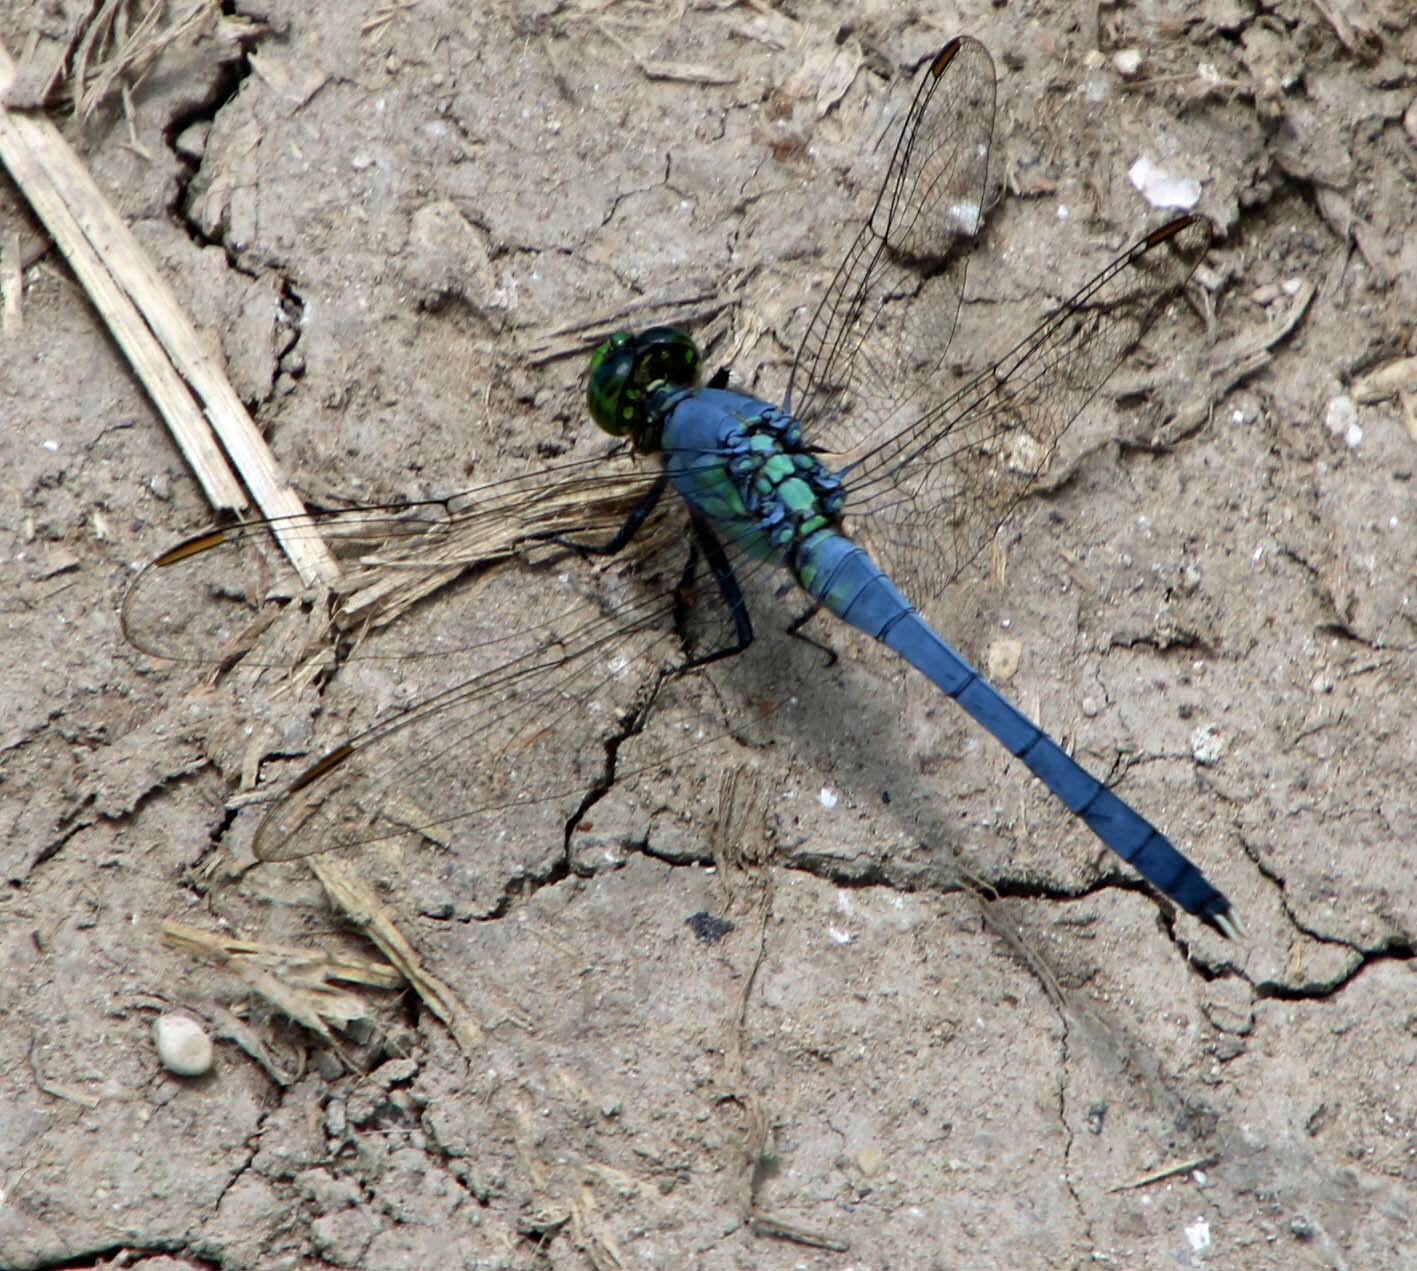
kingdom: Animalia
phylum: Arthropoda
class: Insecta
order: Odonata
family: Libellulidae
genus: Erythemis
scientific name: Erythemis simplicicollis
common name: Eastern pondhawk
